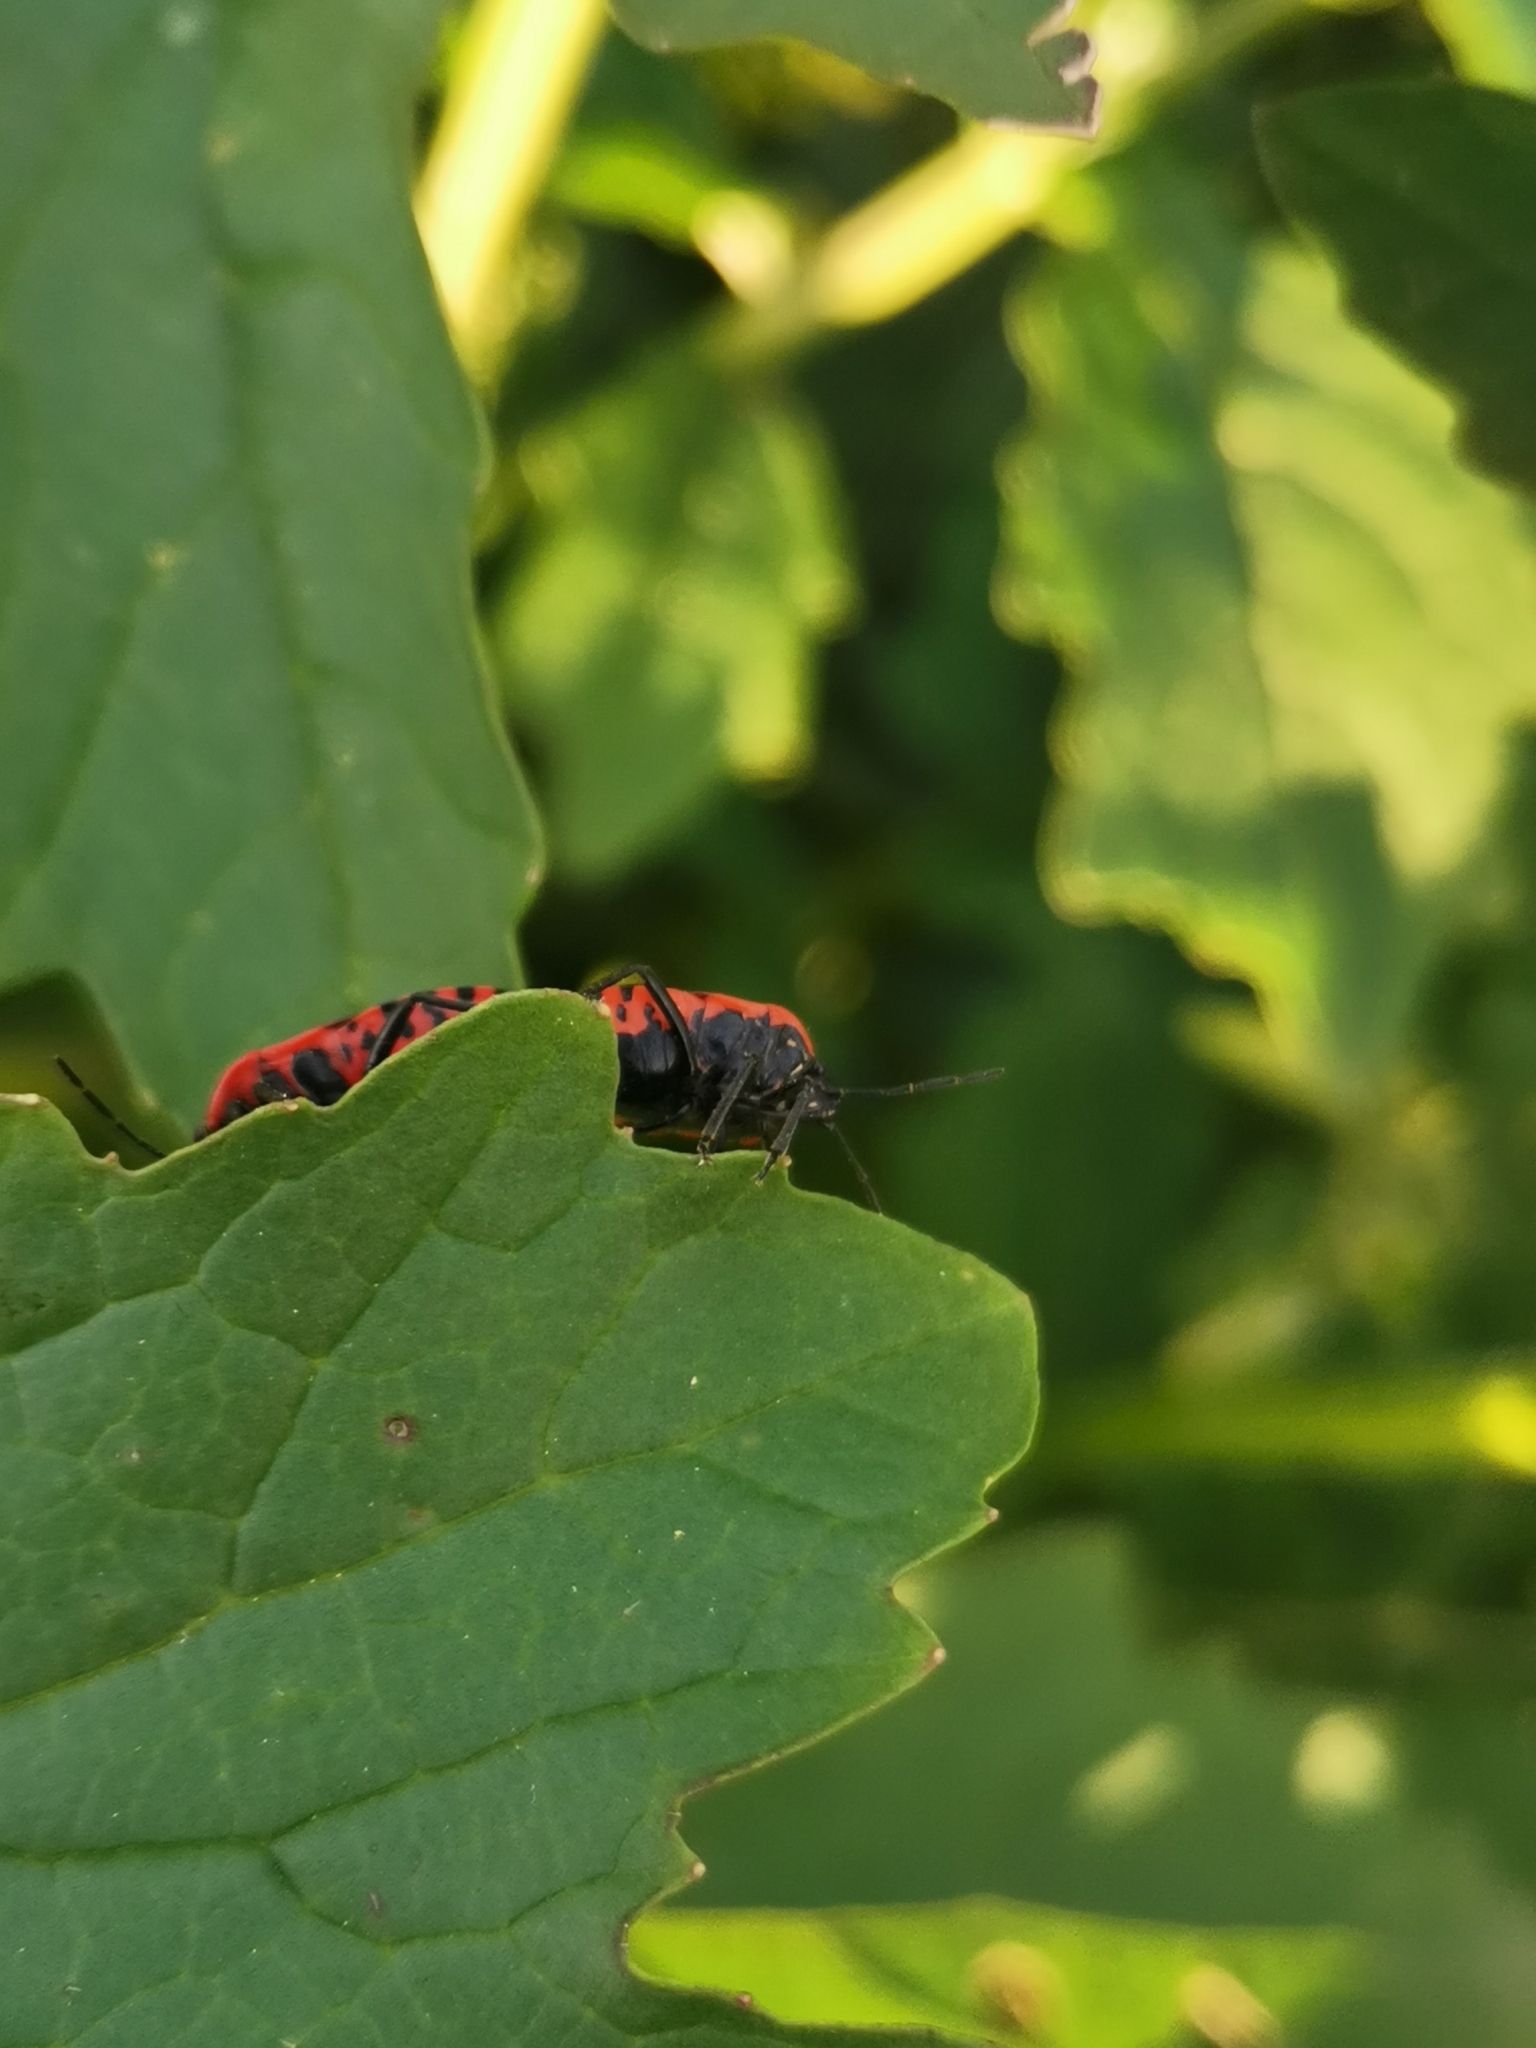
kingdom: Animalia
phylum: Arthropoda
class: Insecta
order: Hemiptera
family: Pentatomidae
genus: Eurydema
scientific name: Eurydema ventralis
